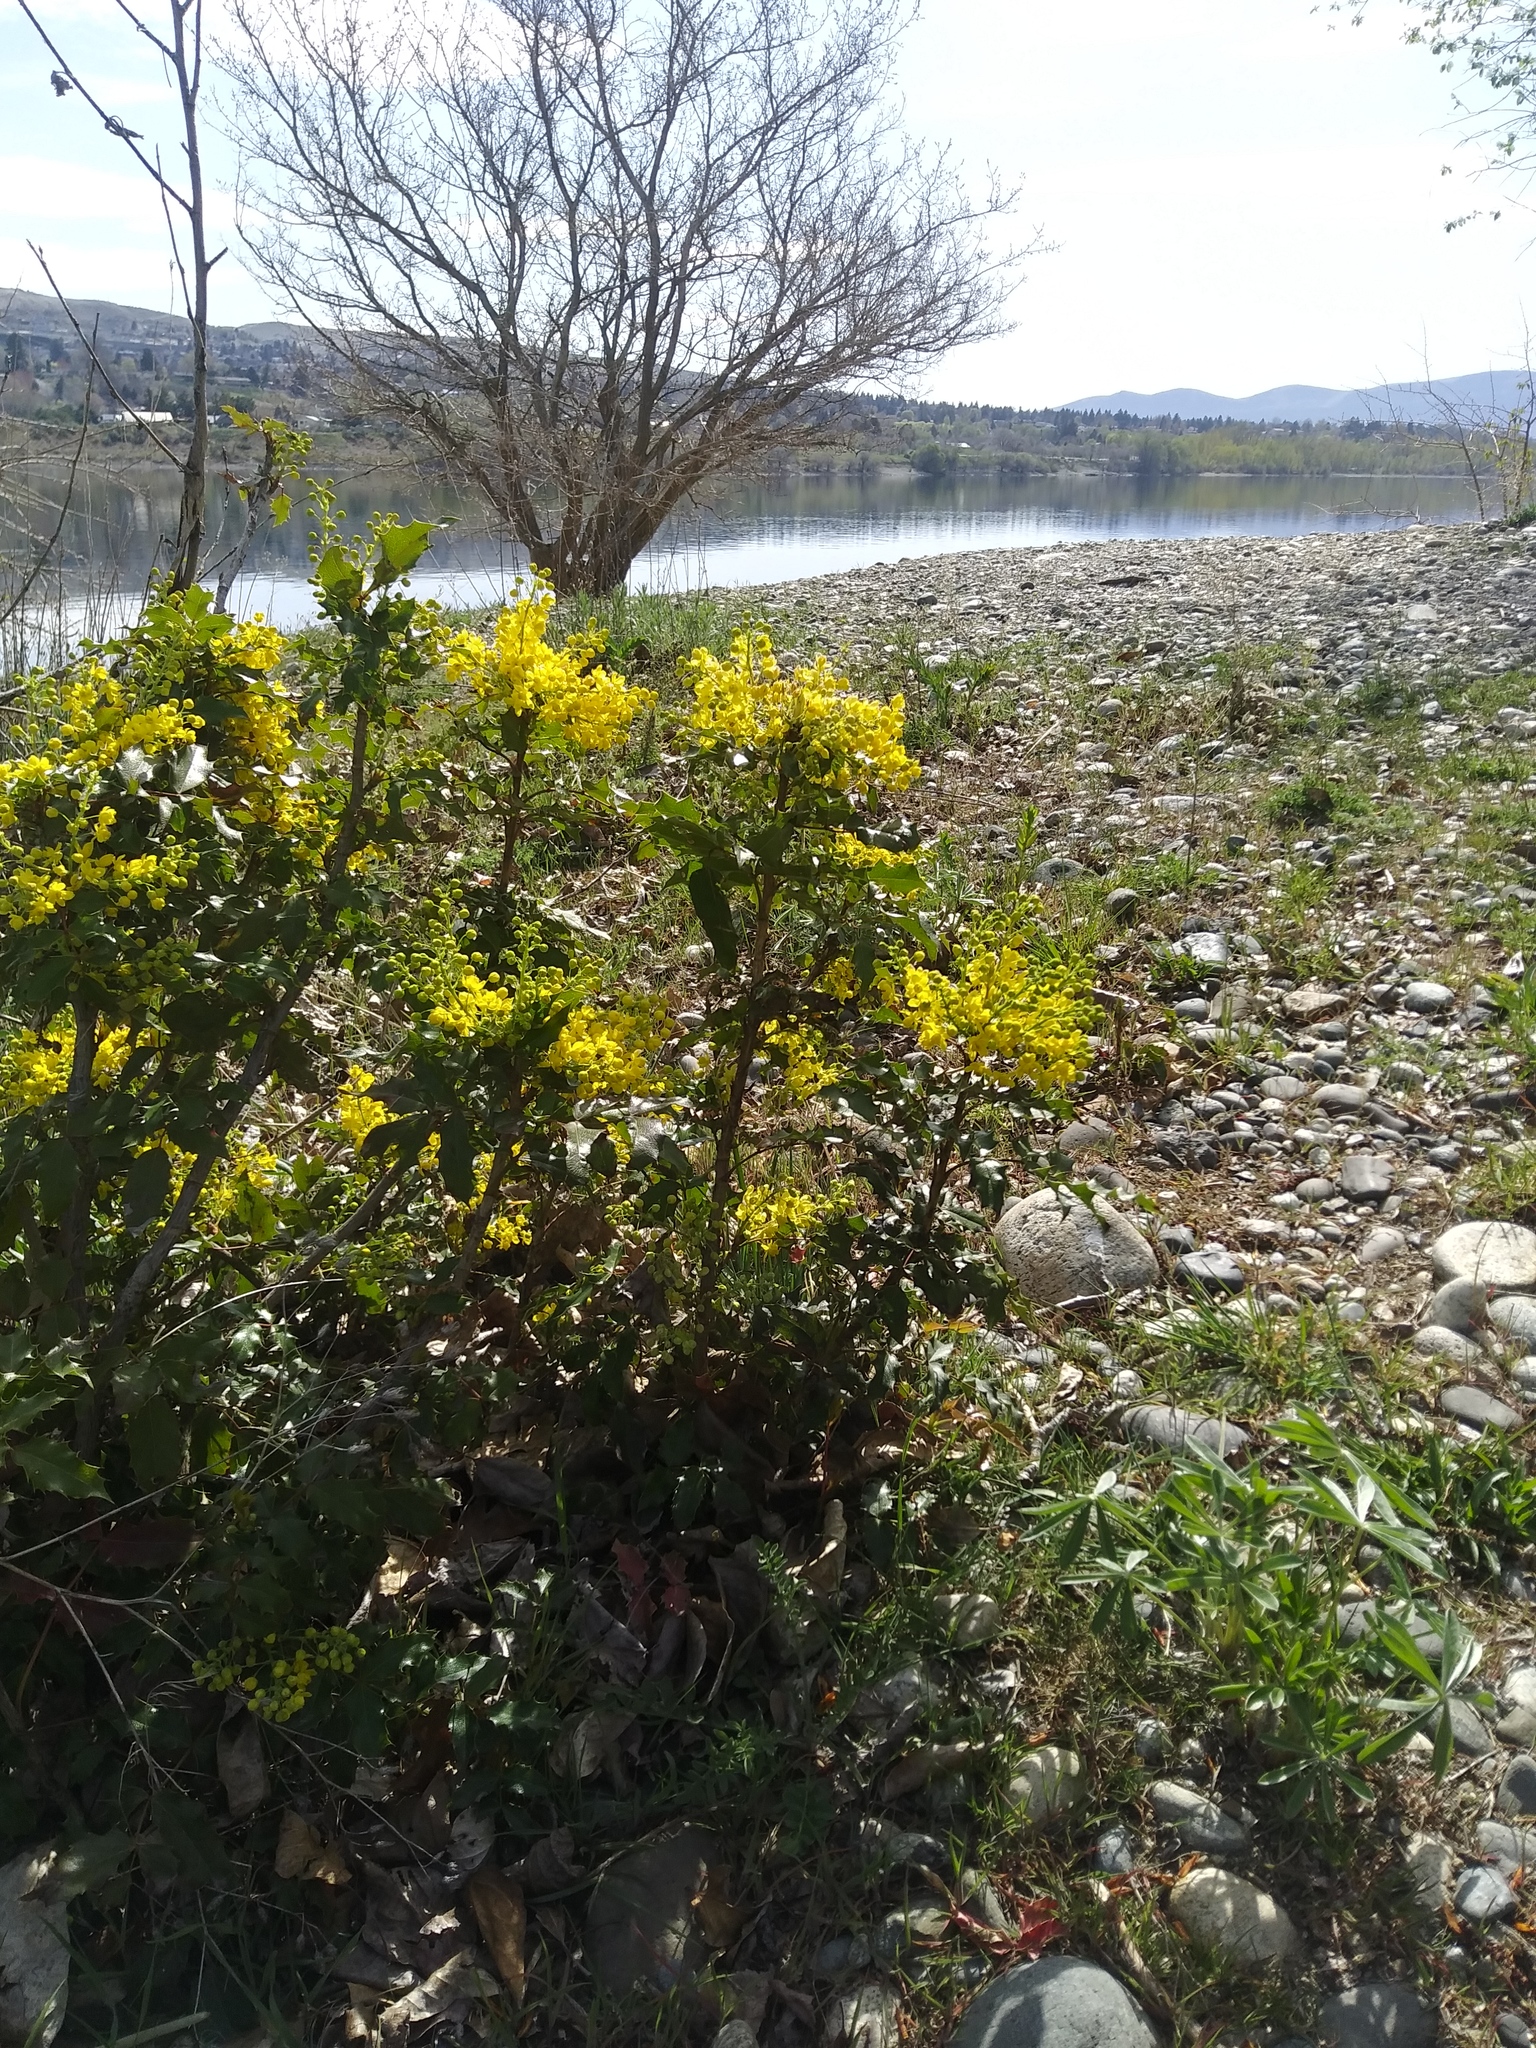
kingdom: Plantae
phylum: Tracheophyta
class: Magnoliopsida
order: Ranunculales
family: Berberidaceae
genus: Mahonia
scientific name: Mahonia aquifolium
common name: Oregon-grape
